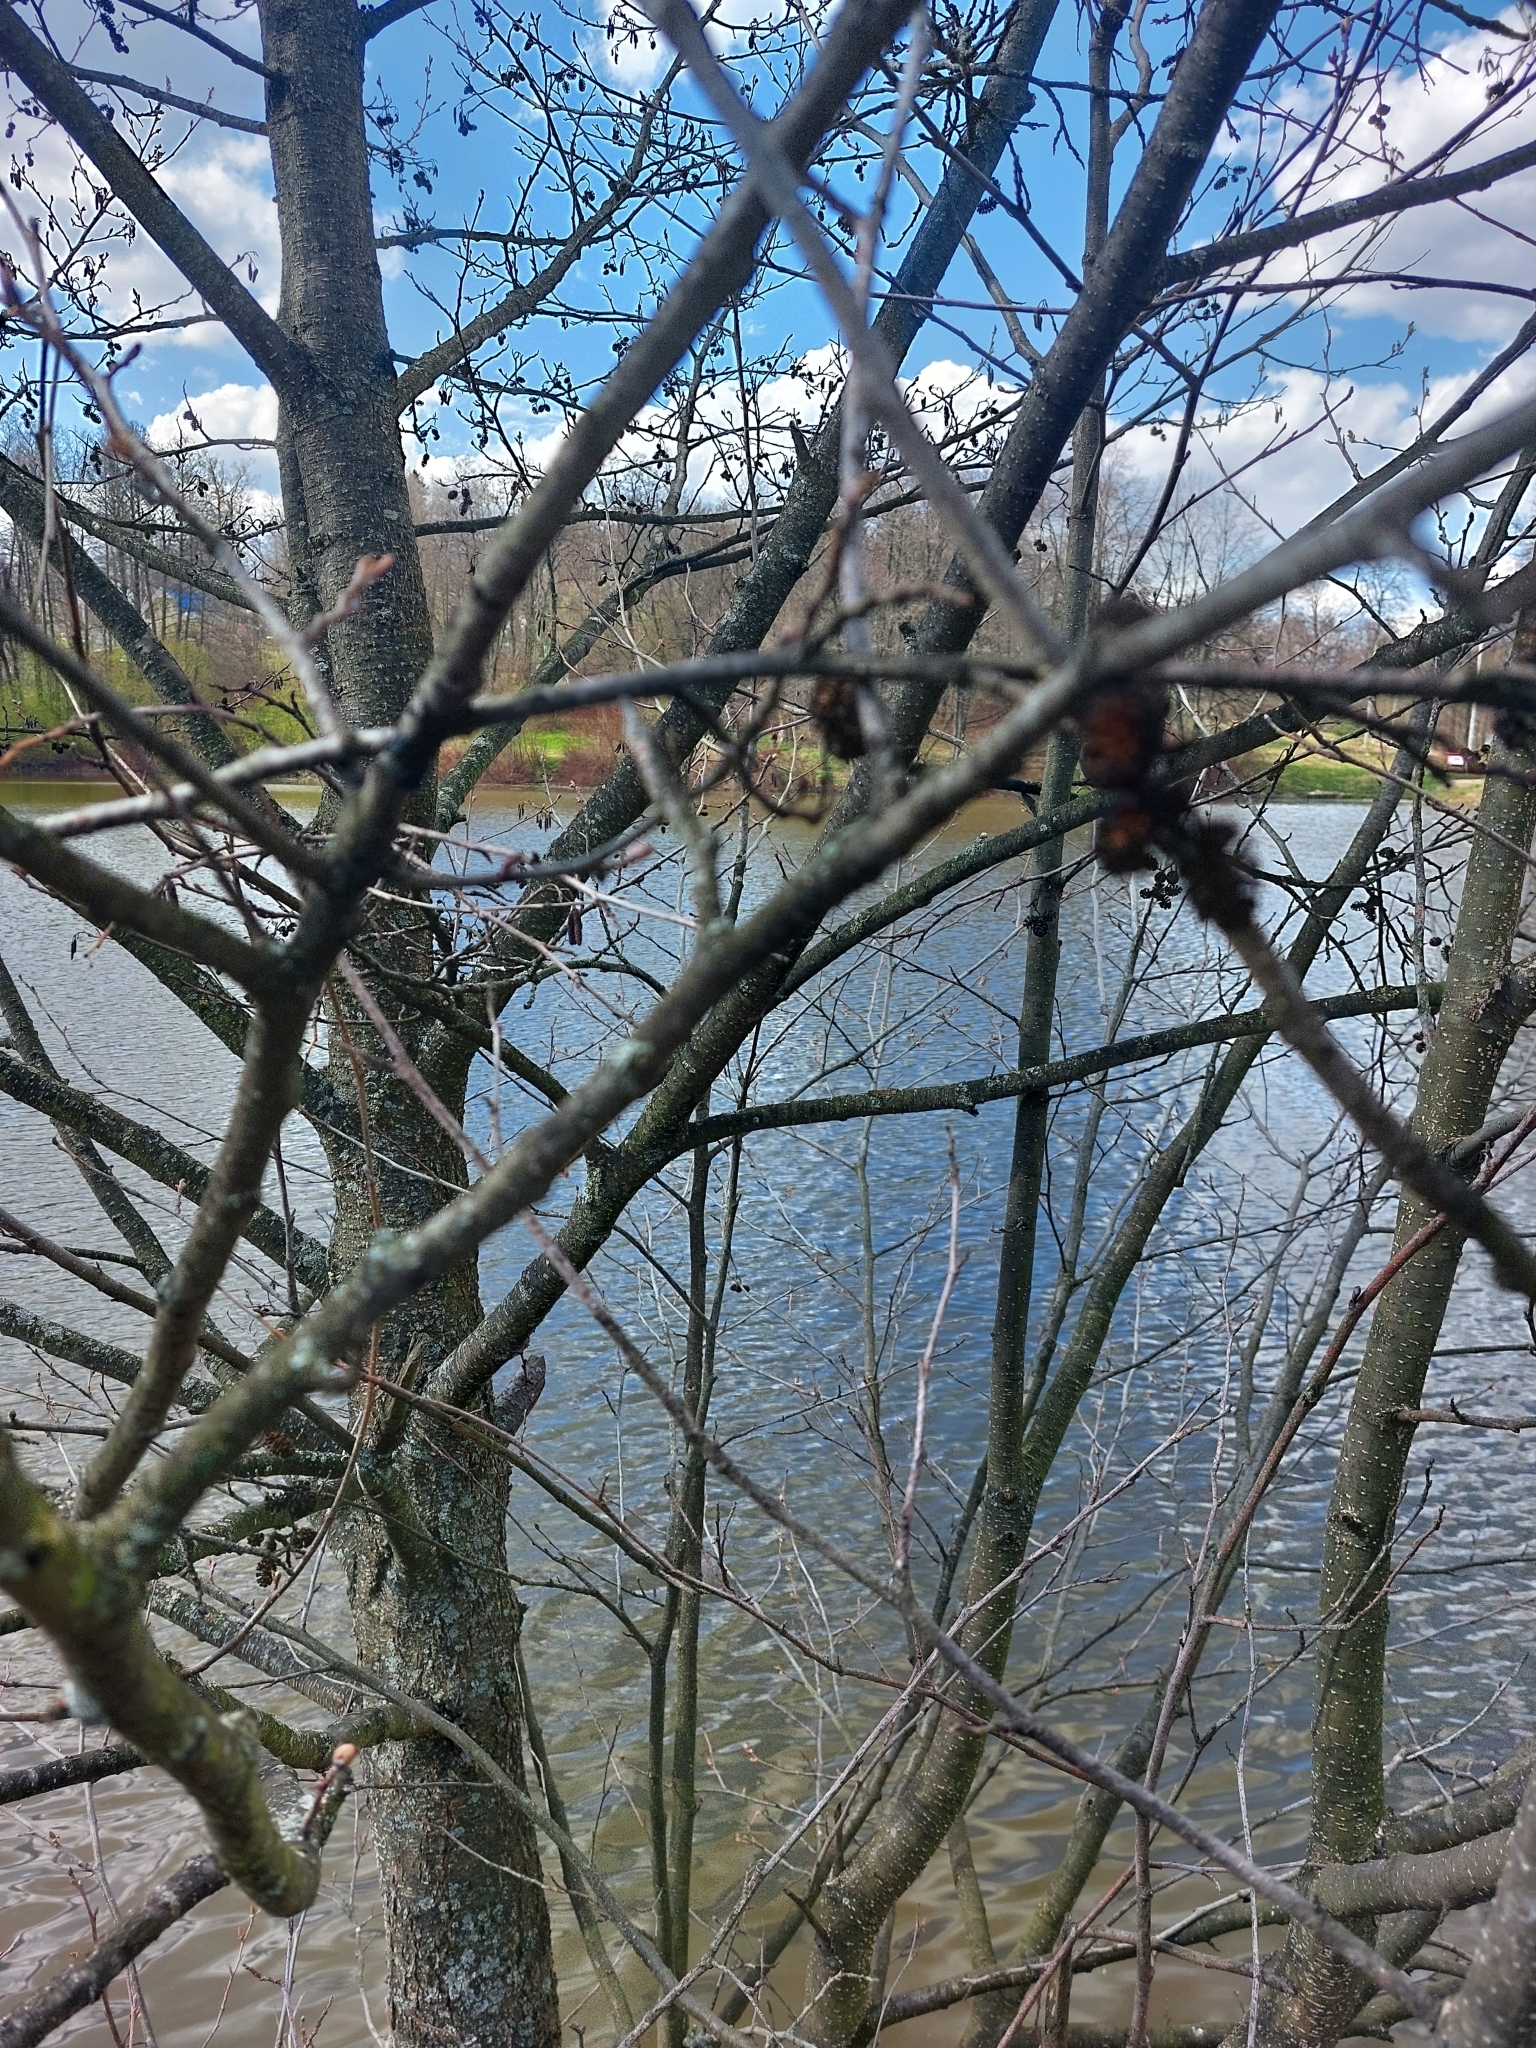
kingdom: Plantae
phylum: Tracheophyta
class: Magnoliopsida
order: Fagales
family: Betulaceae
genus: Alnus
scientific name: Alnus glutinosa
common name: Black alder
